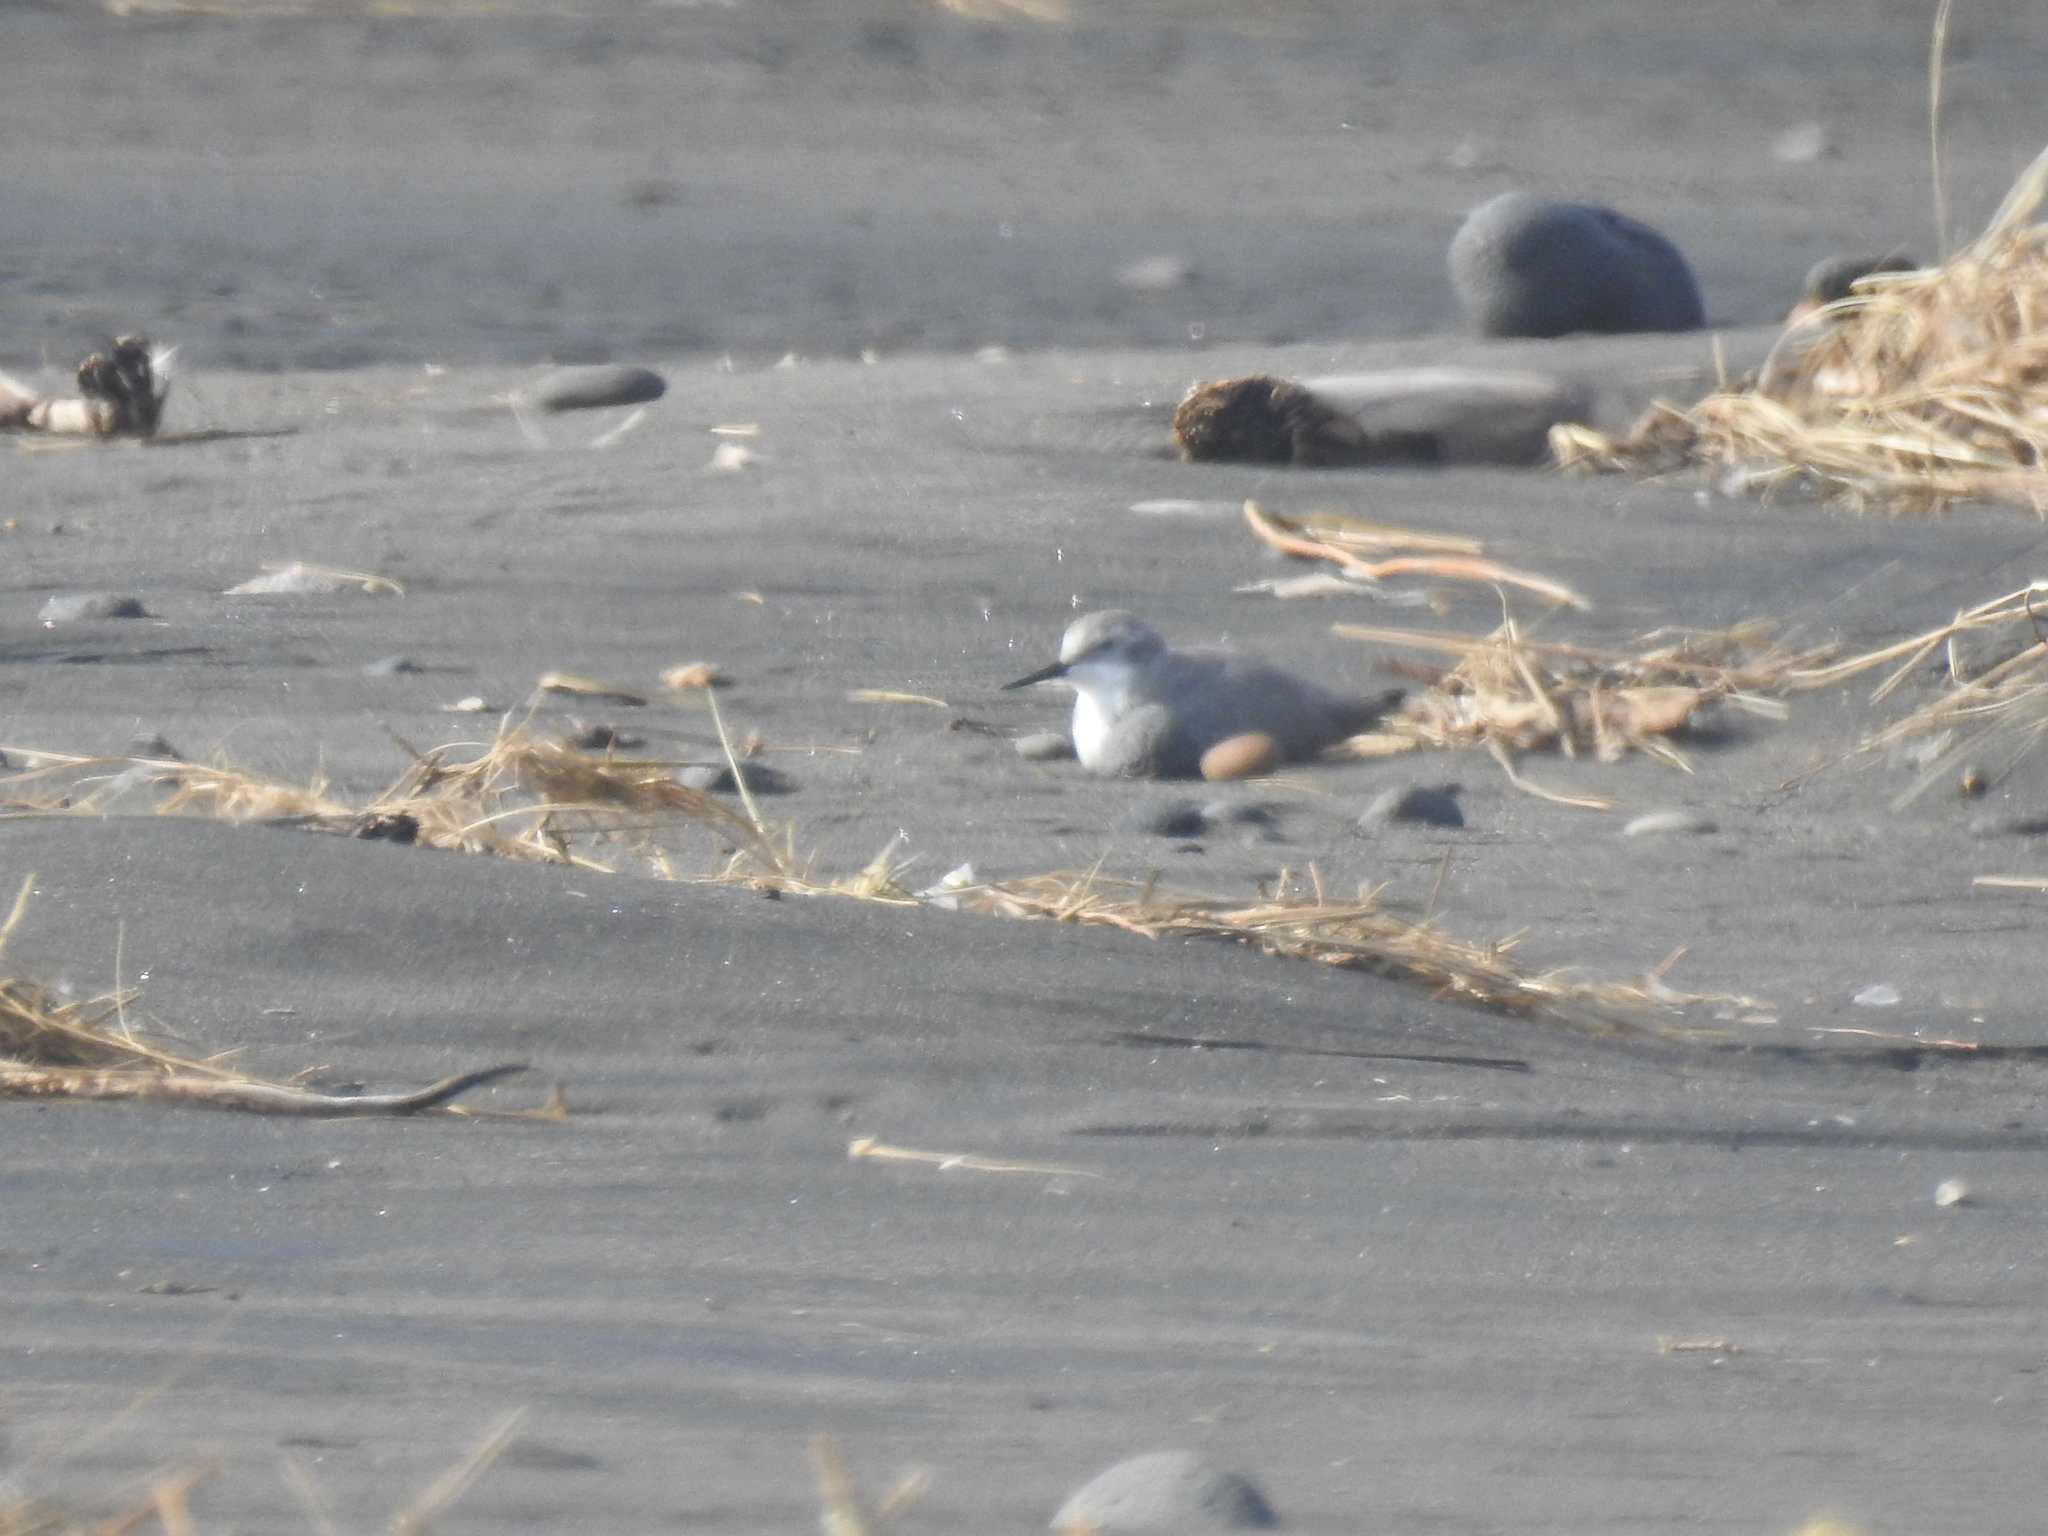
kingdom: Animalia
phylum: Chordata
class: Aves
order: Charadriiformes
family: Charadriidae
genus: Anarhynchus
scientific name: Anarhynchus frontalis
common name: Wrybill
